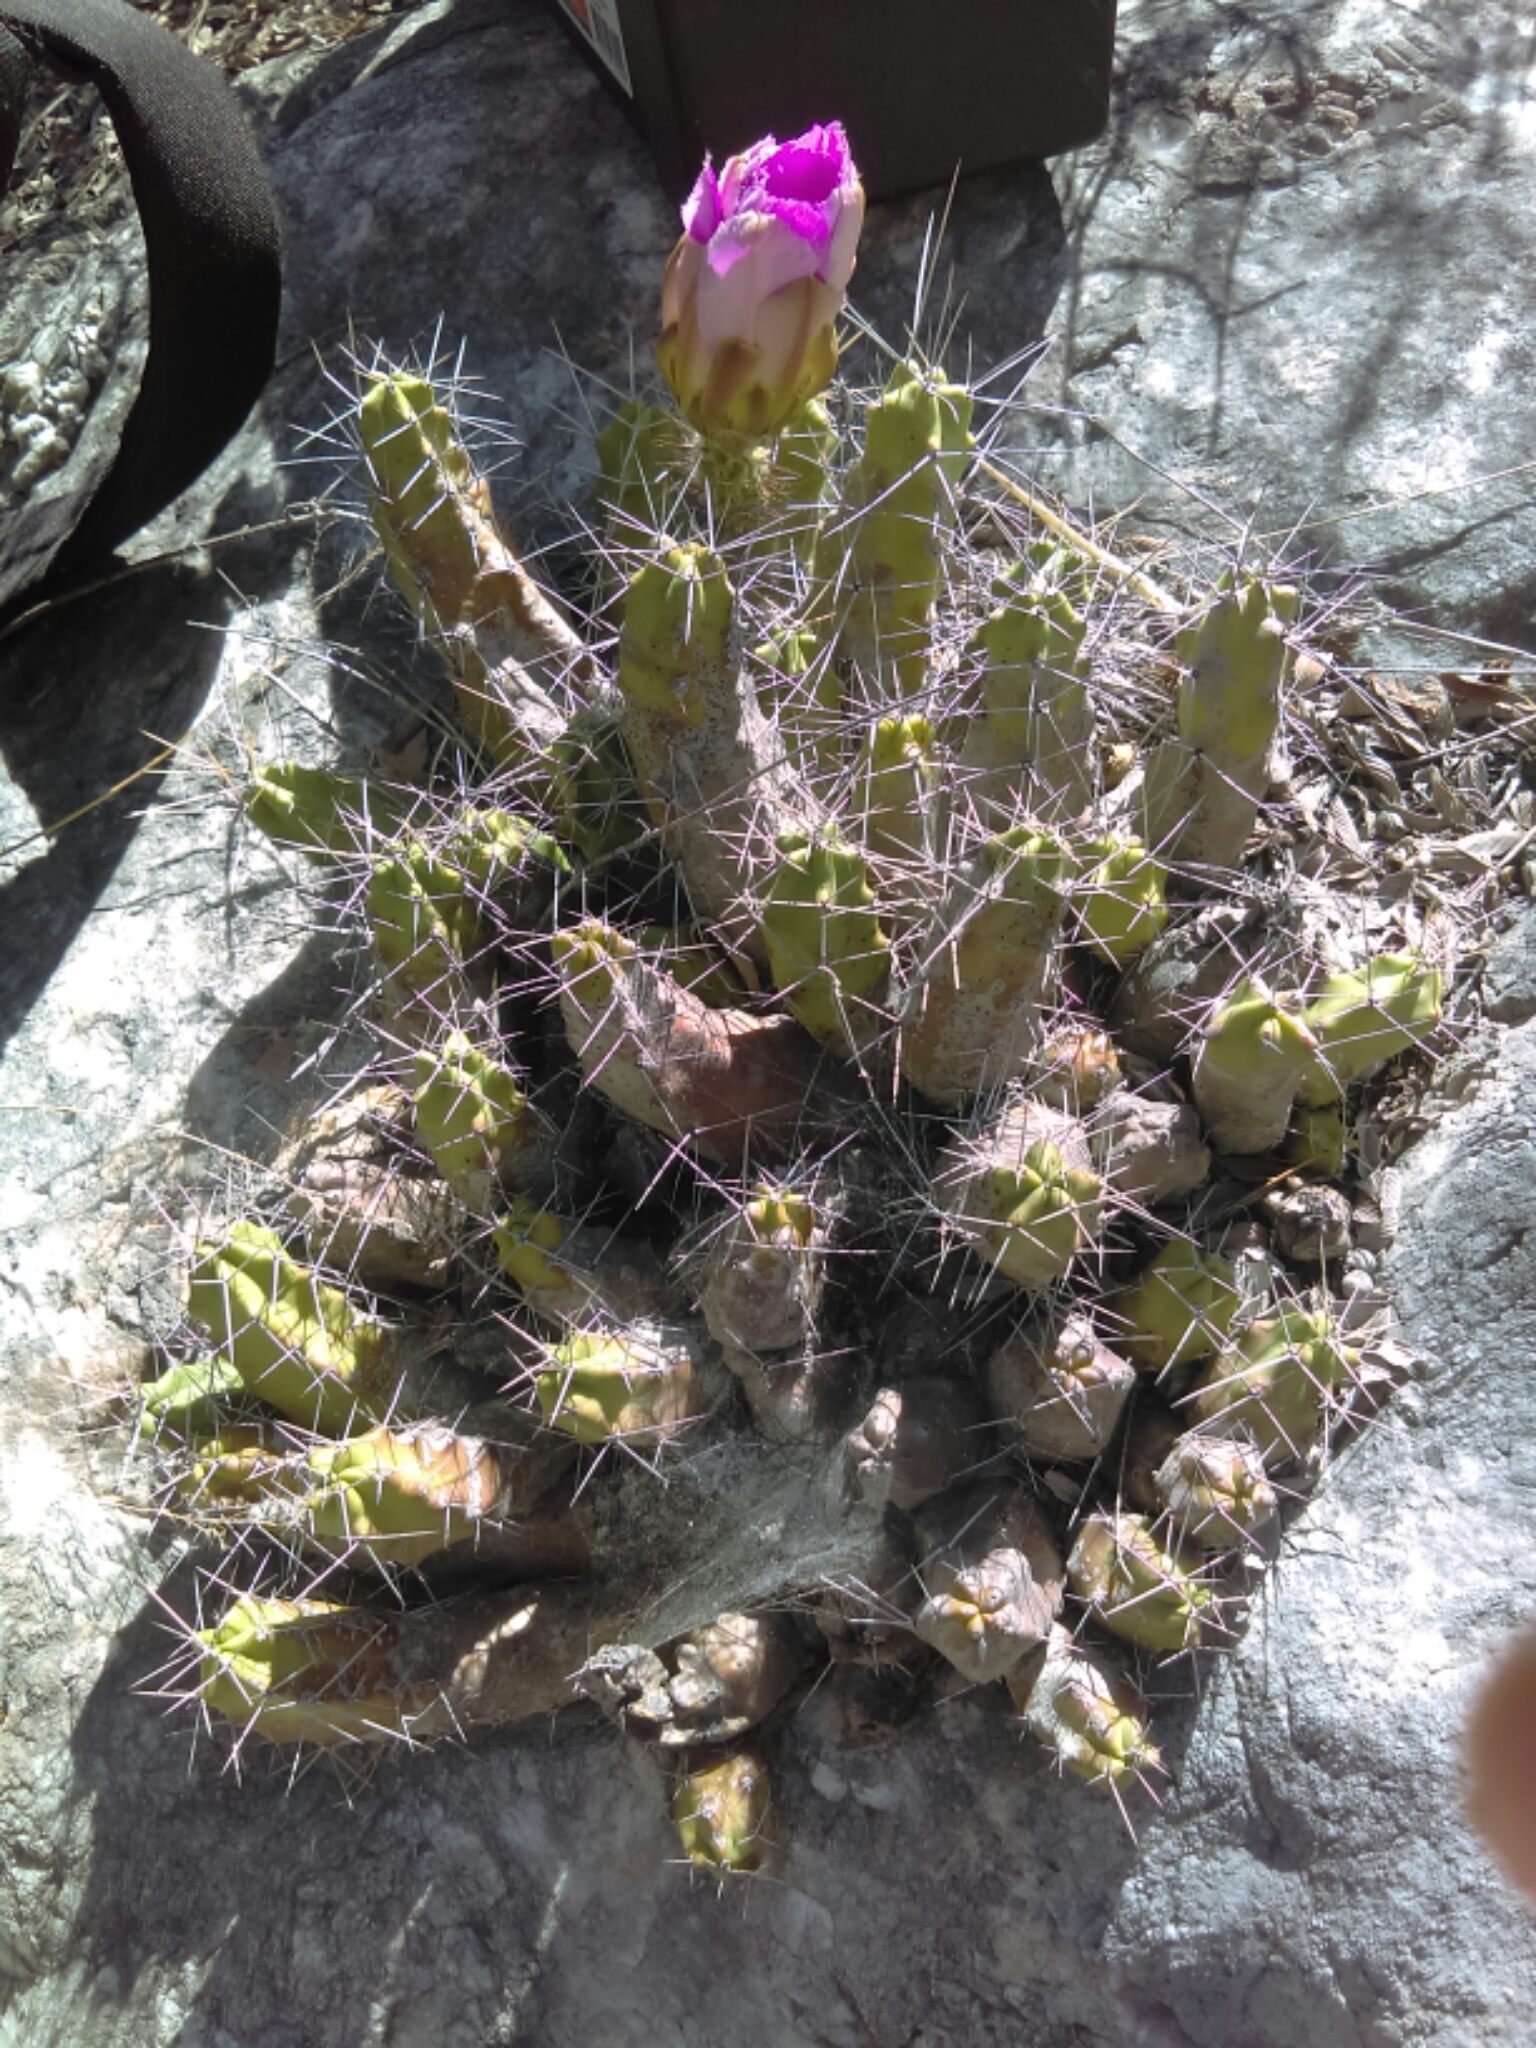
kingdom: Plantae
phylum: Tracheophyta
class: Magnoliopsida
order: Caryophyllales
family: Cactaceae
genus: Echinocereus
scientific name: Echinocereus pentalophus
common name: Ladyfinger cactus
